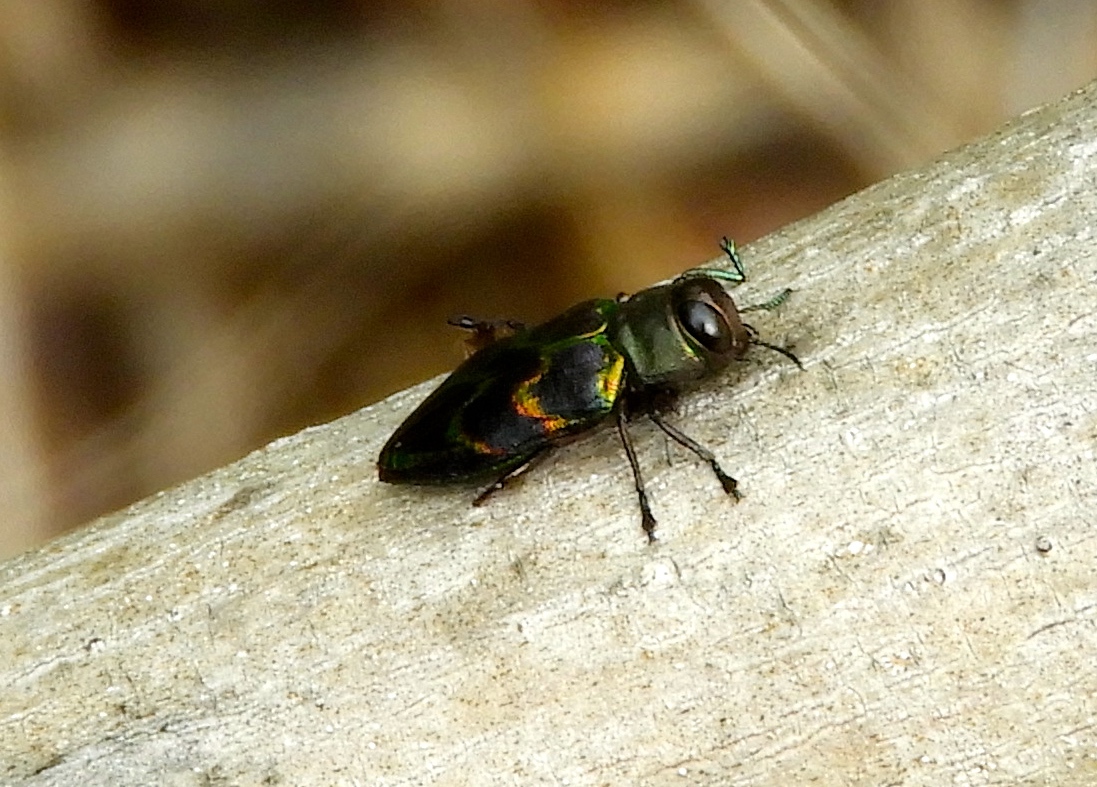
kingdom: Animalia
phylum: Arthropoda
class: Insecta
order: Coleoptera
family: Buprestidae
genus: Actenodes
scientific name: Actenodes calcaratus
